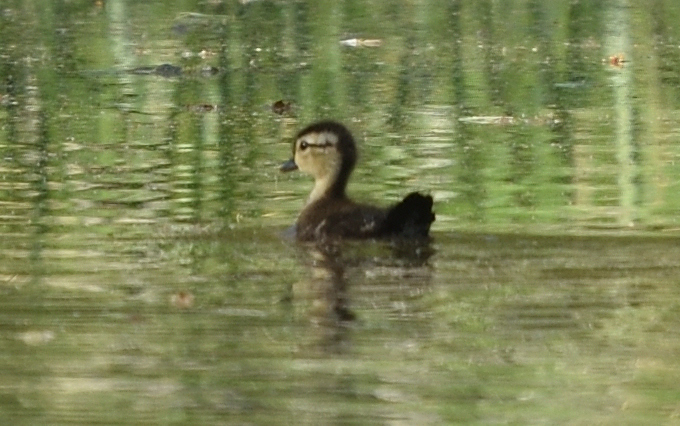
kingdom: Animalia
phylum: Chordata
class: Aves
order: Anseriformes
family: Anatidae
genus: Aix
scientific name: Aix sponsa
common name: Wood duck
